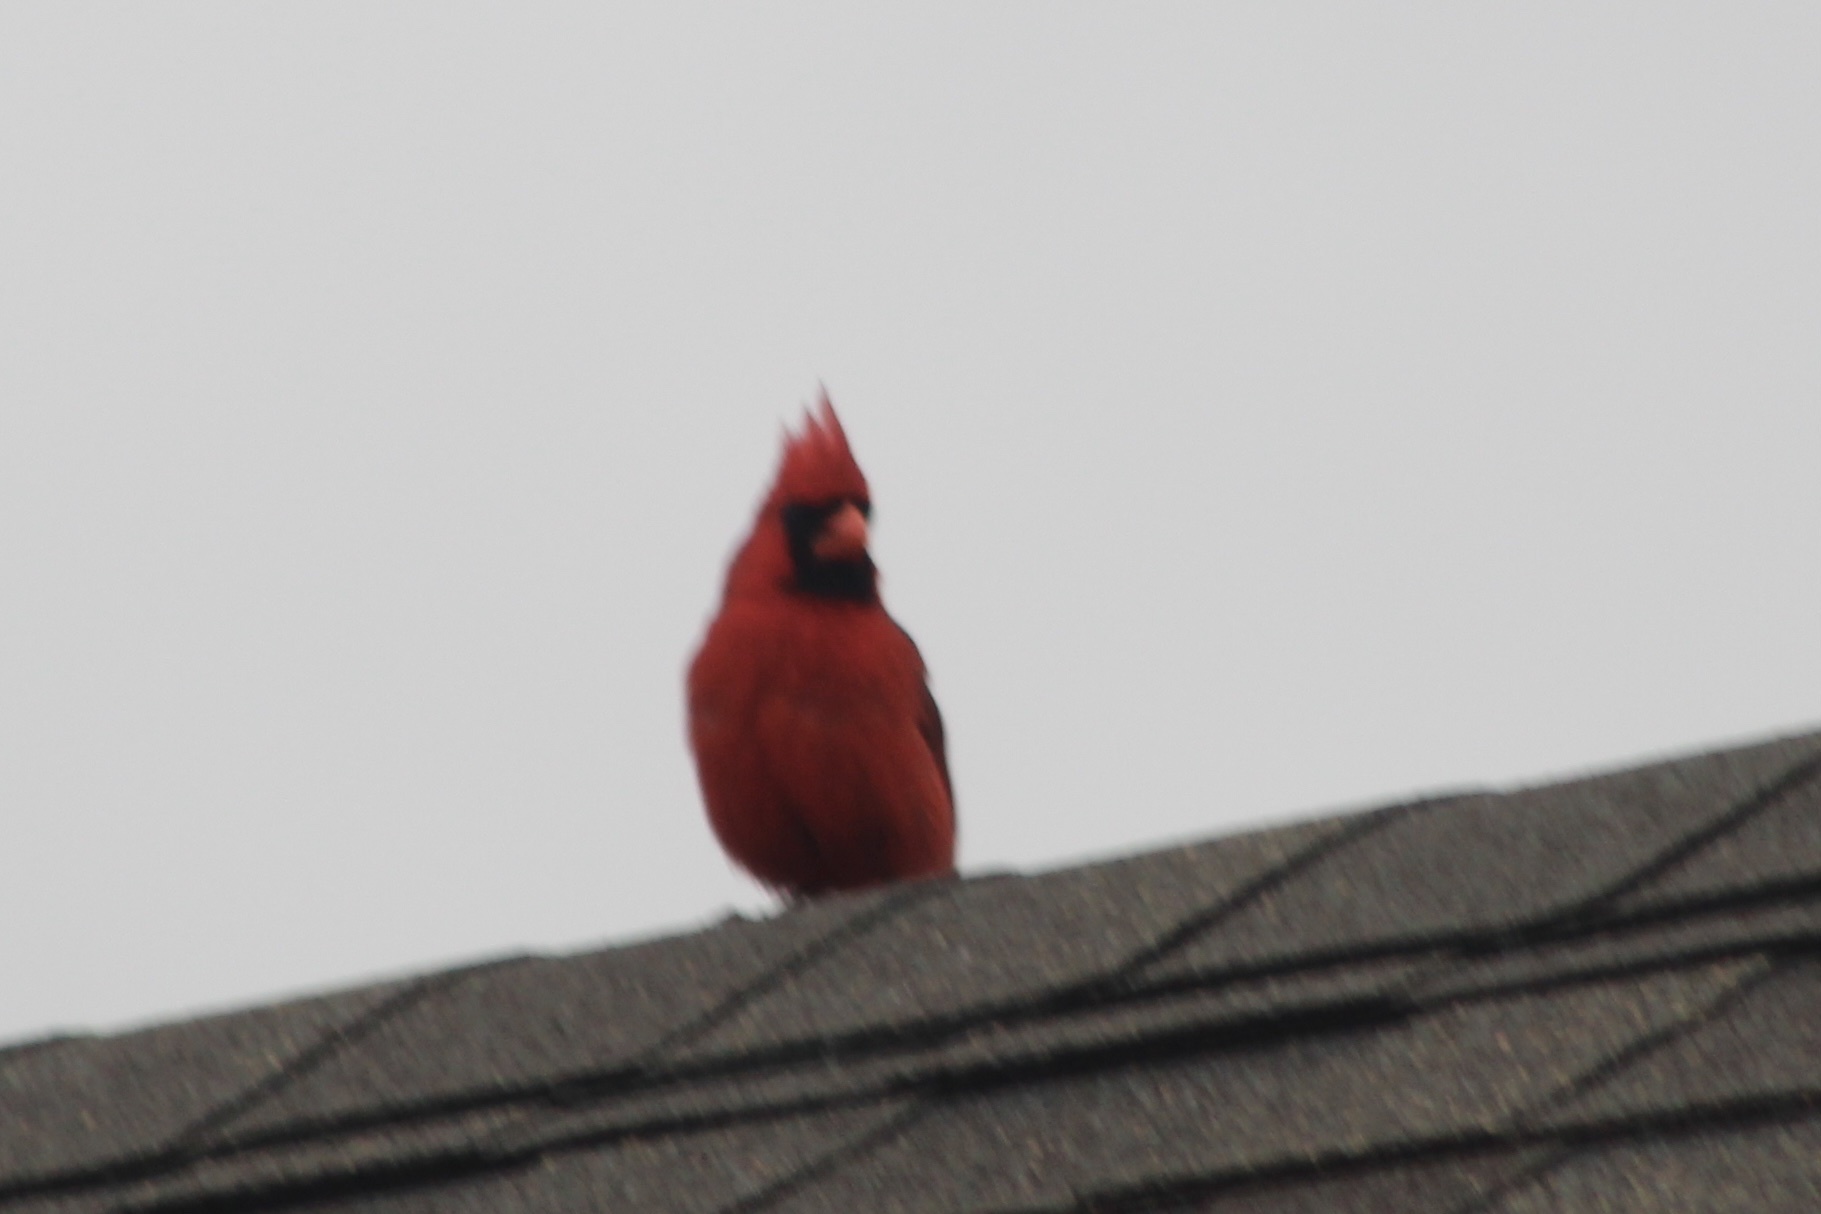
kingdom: Animalia
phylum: Chordata
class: Aves
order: Passeriformes
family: Cardinalidae
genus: Cardinalis
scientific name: Cardinalis cardinalis
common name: Northern cardinal
